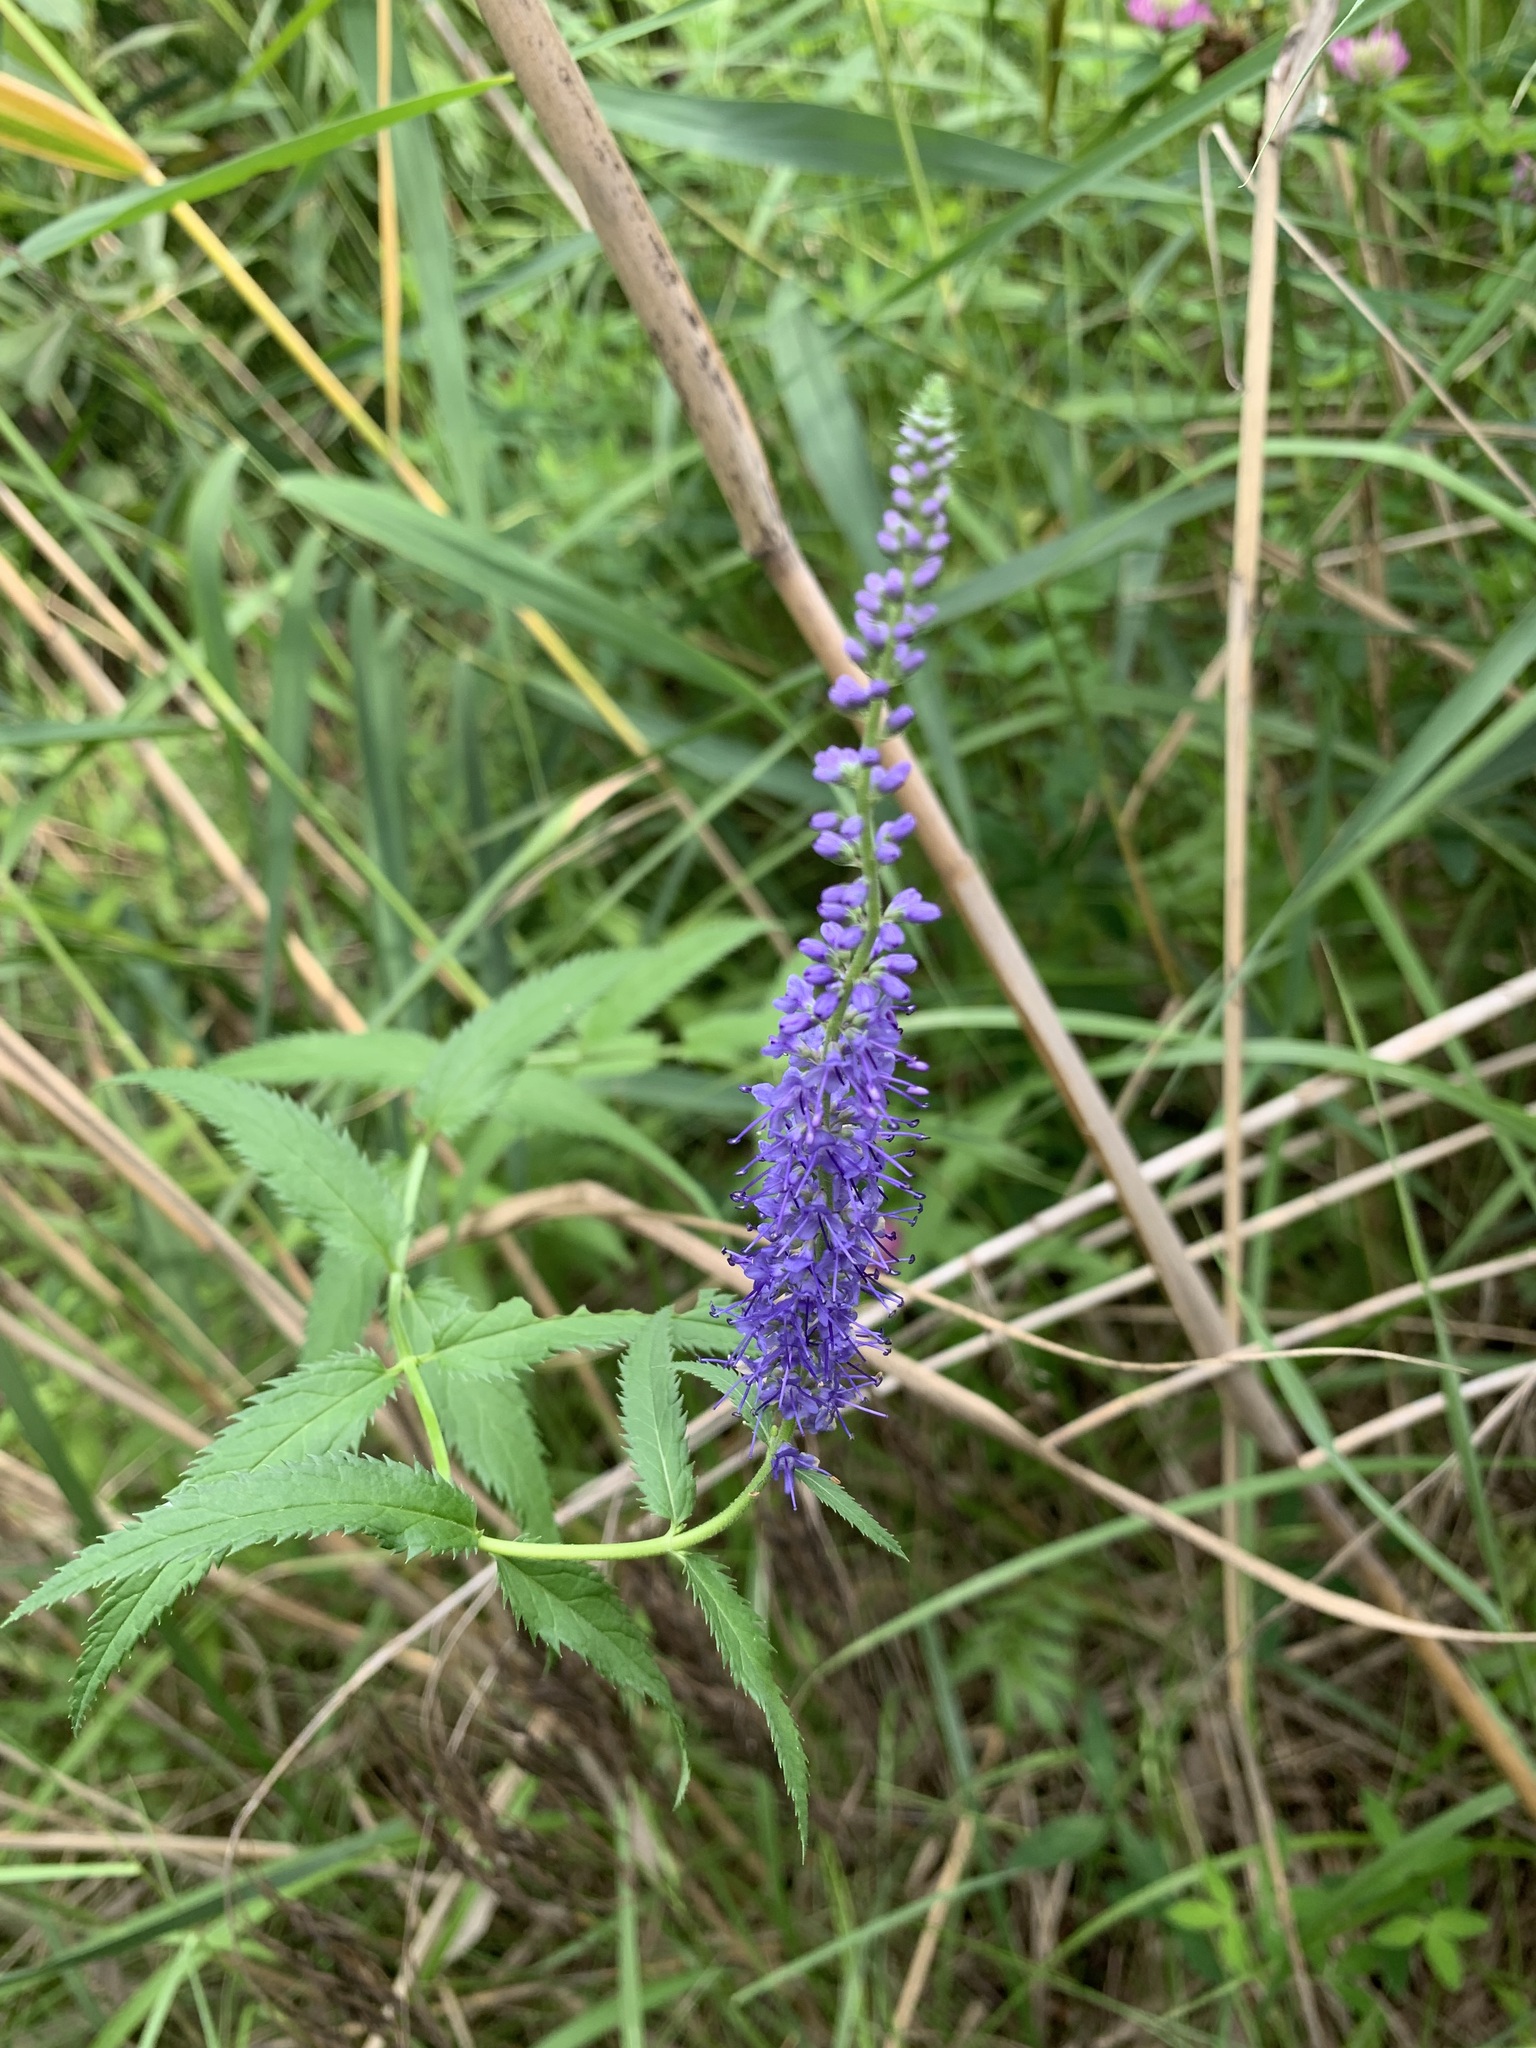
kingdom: Plantae
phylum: Tracheophyta
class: Magnoliopsida
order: Lamiales
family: Plantaginaceae
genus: Veronica
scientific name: Veronica longifolia
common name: Garden speedwell
